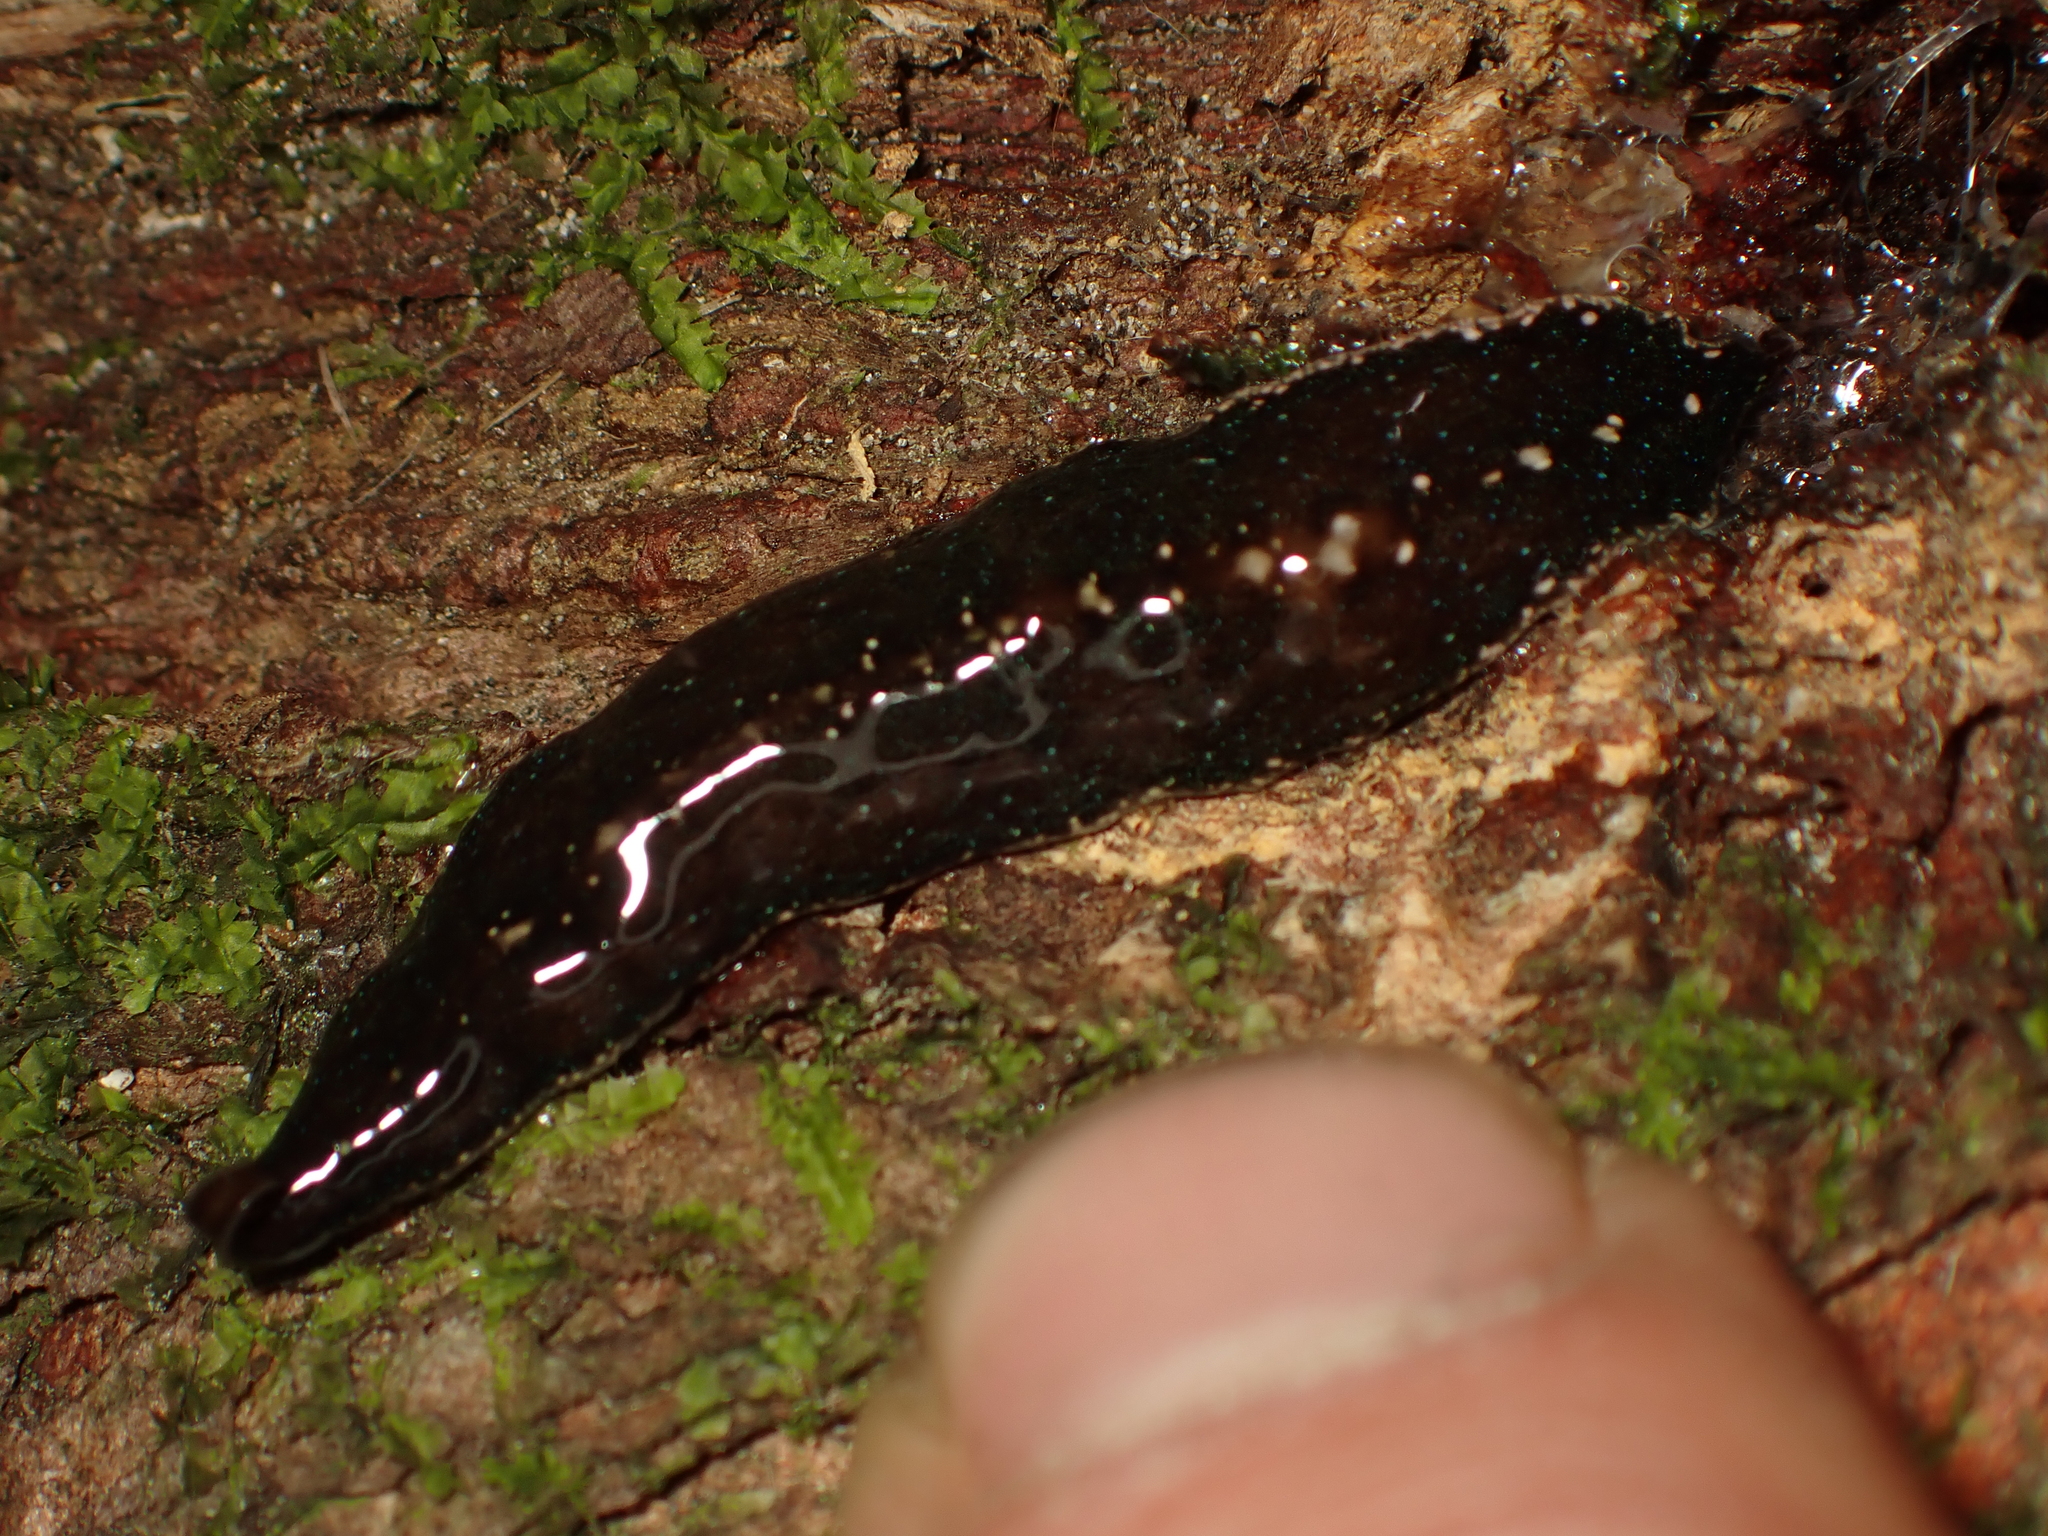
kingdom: Animalia
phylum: Platyhelminthes
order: Tricladida
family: Geoplanidae
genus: Newzealandia
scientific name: Newzealandia graffii
